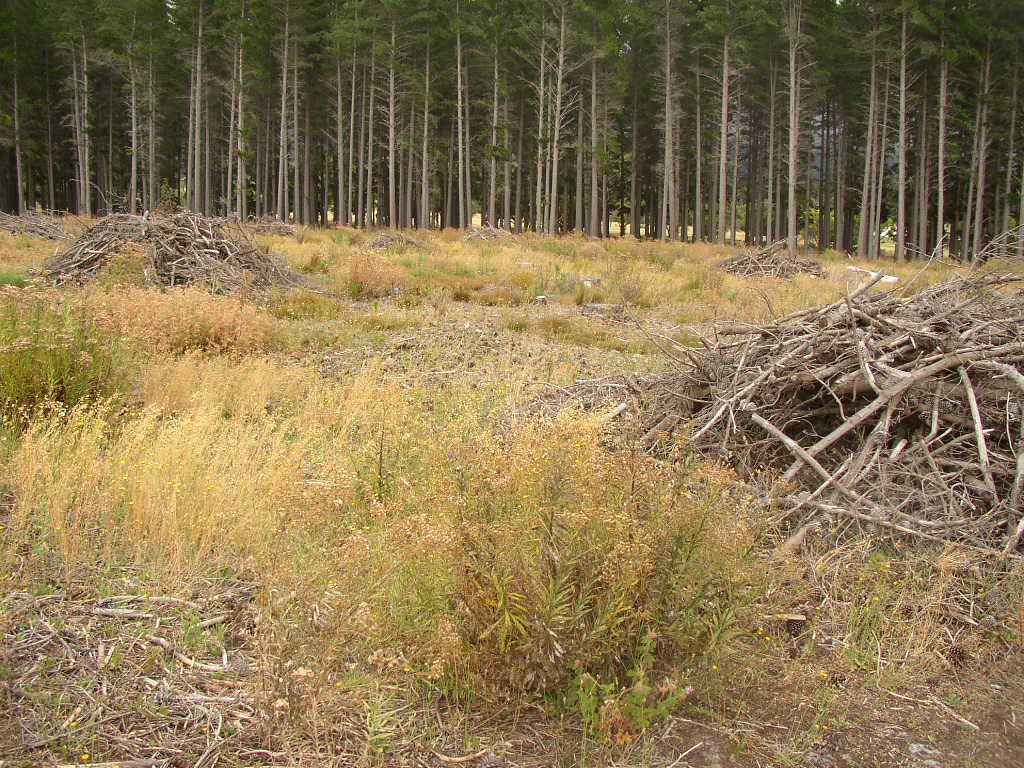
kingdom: Plantae
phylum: Tracheophyta
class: Liliopsida
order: Poales
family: Poaceae
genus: Briza
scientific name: Briza maxima
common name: Big quakinggrass
